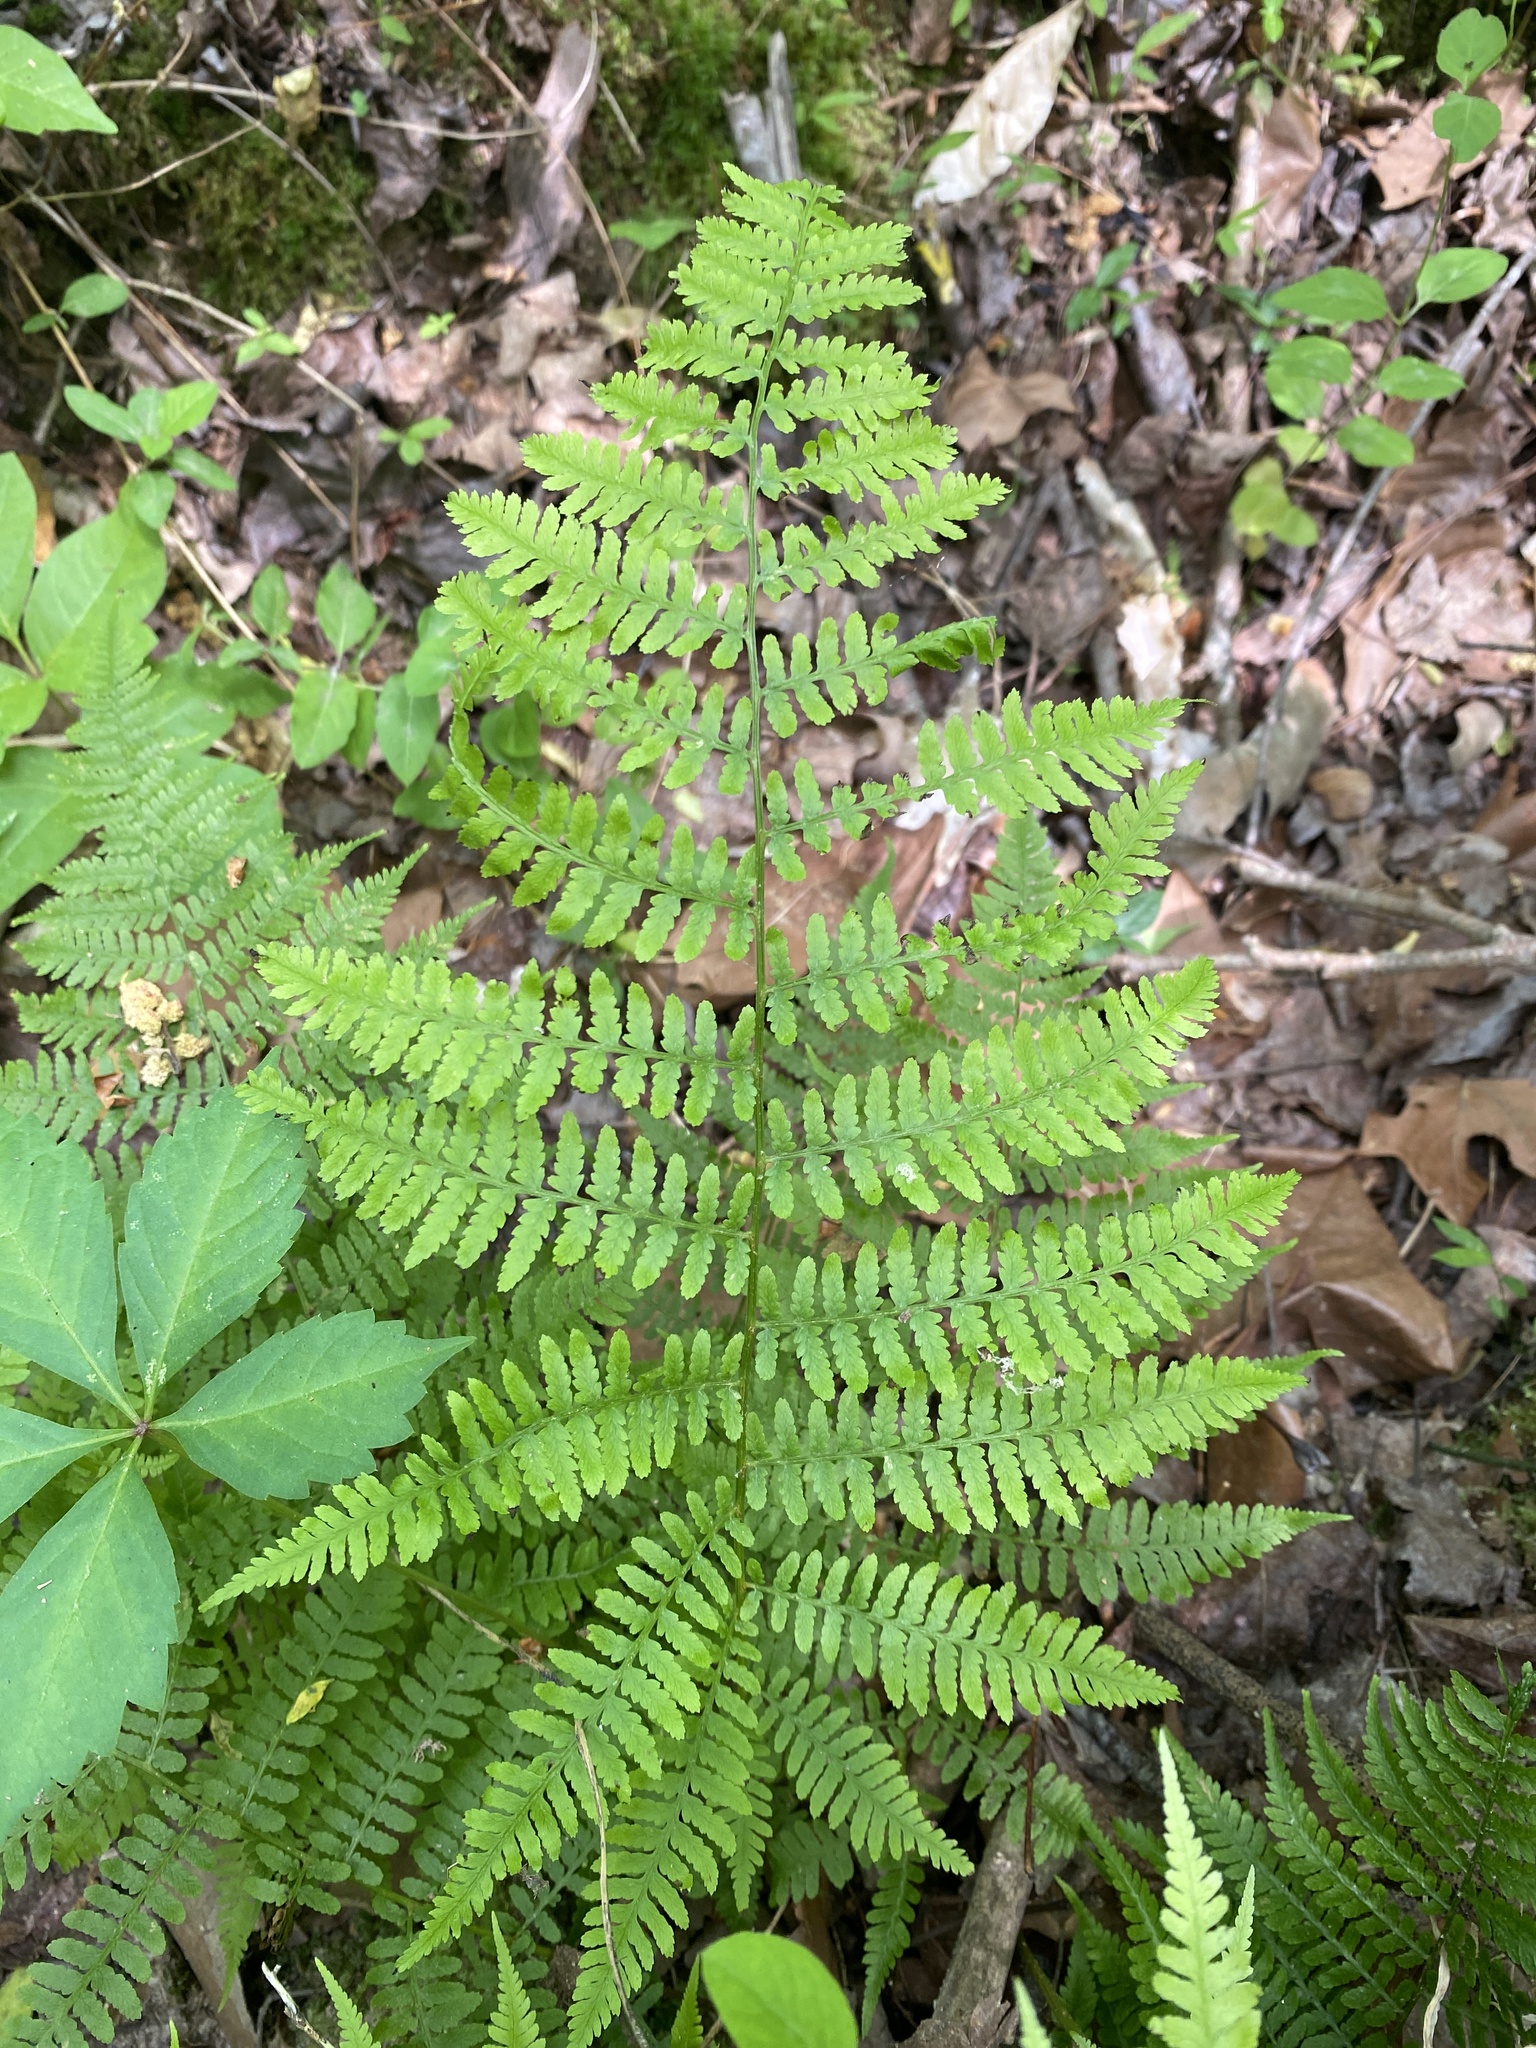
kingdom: Plantae
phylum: Tracheophyta
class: Polypodiopsida
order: Polypodiales
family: Athyriaceae
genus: Athyrium
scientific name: Athyrium asplenioides
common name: Southern lady fern
